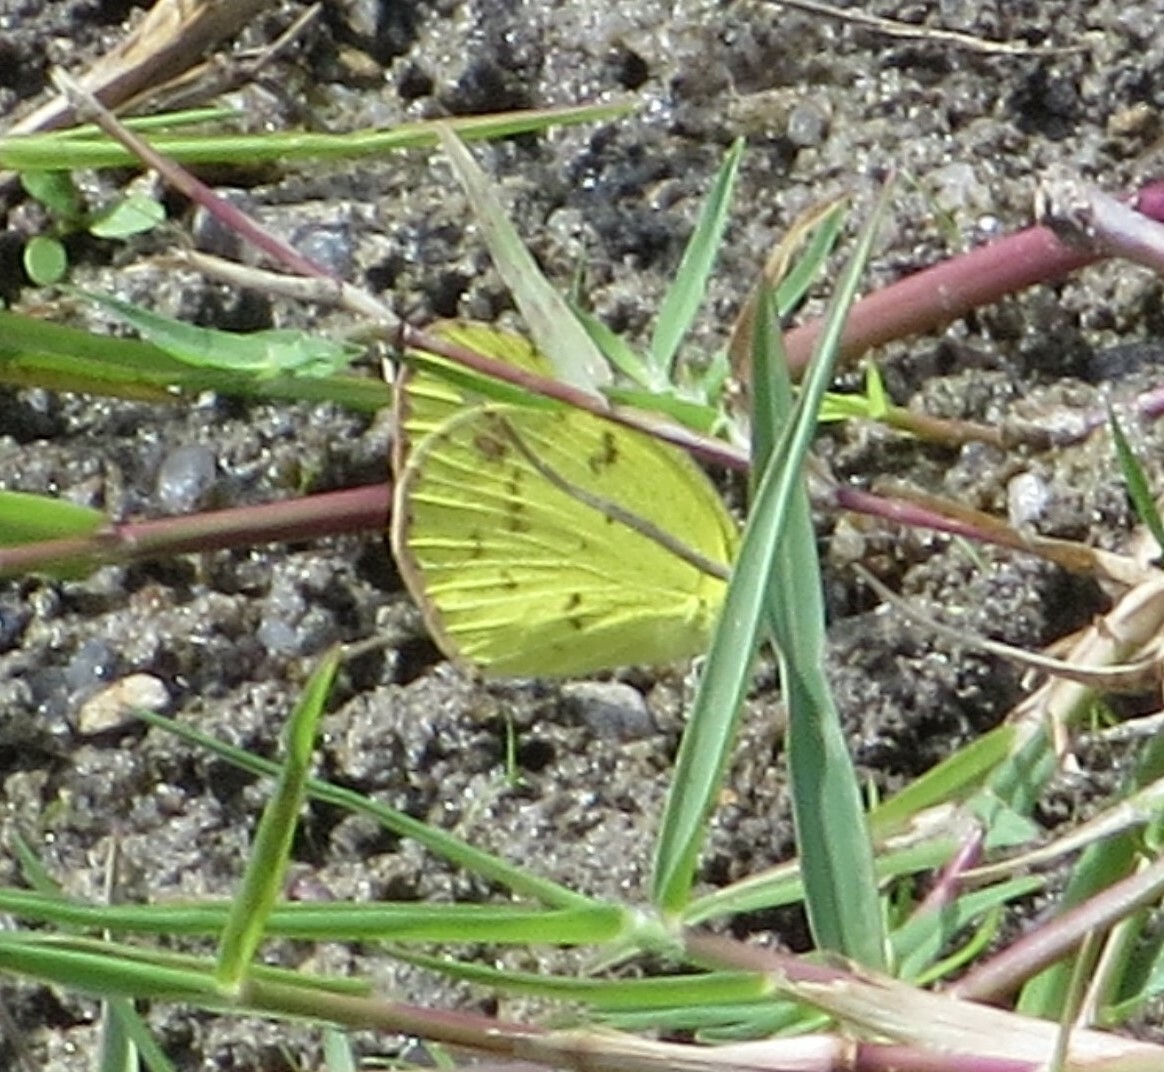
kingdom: Animalia
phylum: Arthropoda
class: Insecta
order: Lepidoptera
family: Pieridae
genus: Pyrisitia
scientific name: Pyrisitia lisa
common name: Little yellow
